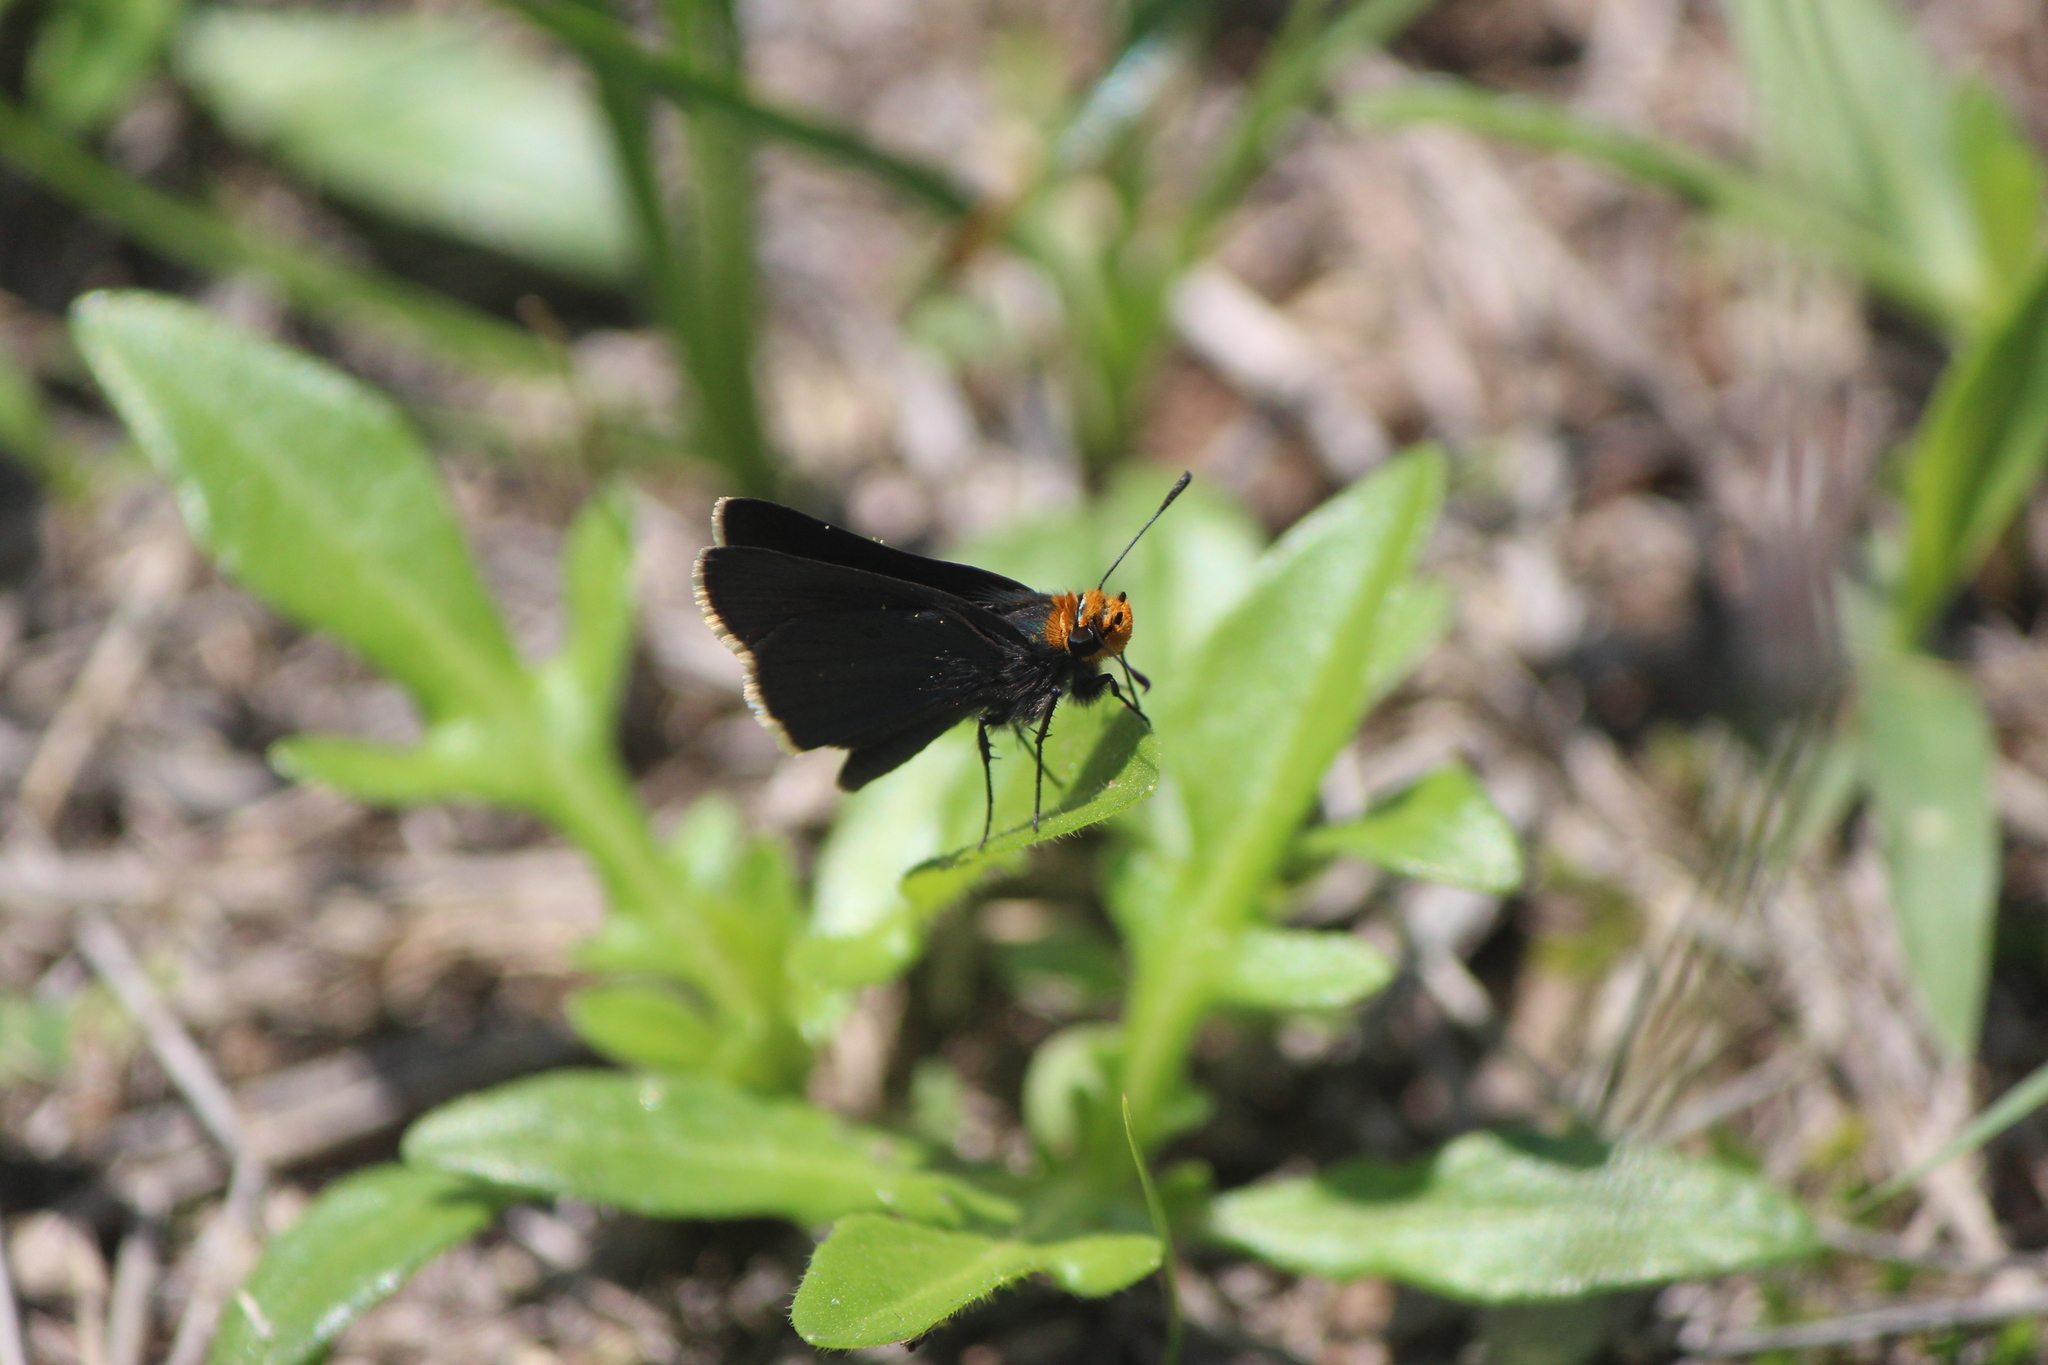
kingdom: Animalia
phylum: Arthropoda
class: Insecta
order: Lepidoptera
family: Hesperiidae
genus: Mastor
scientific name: Mastor fimbriata
